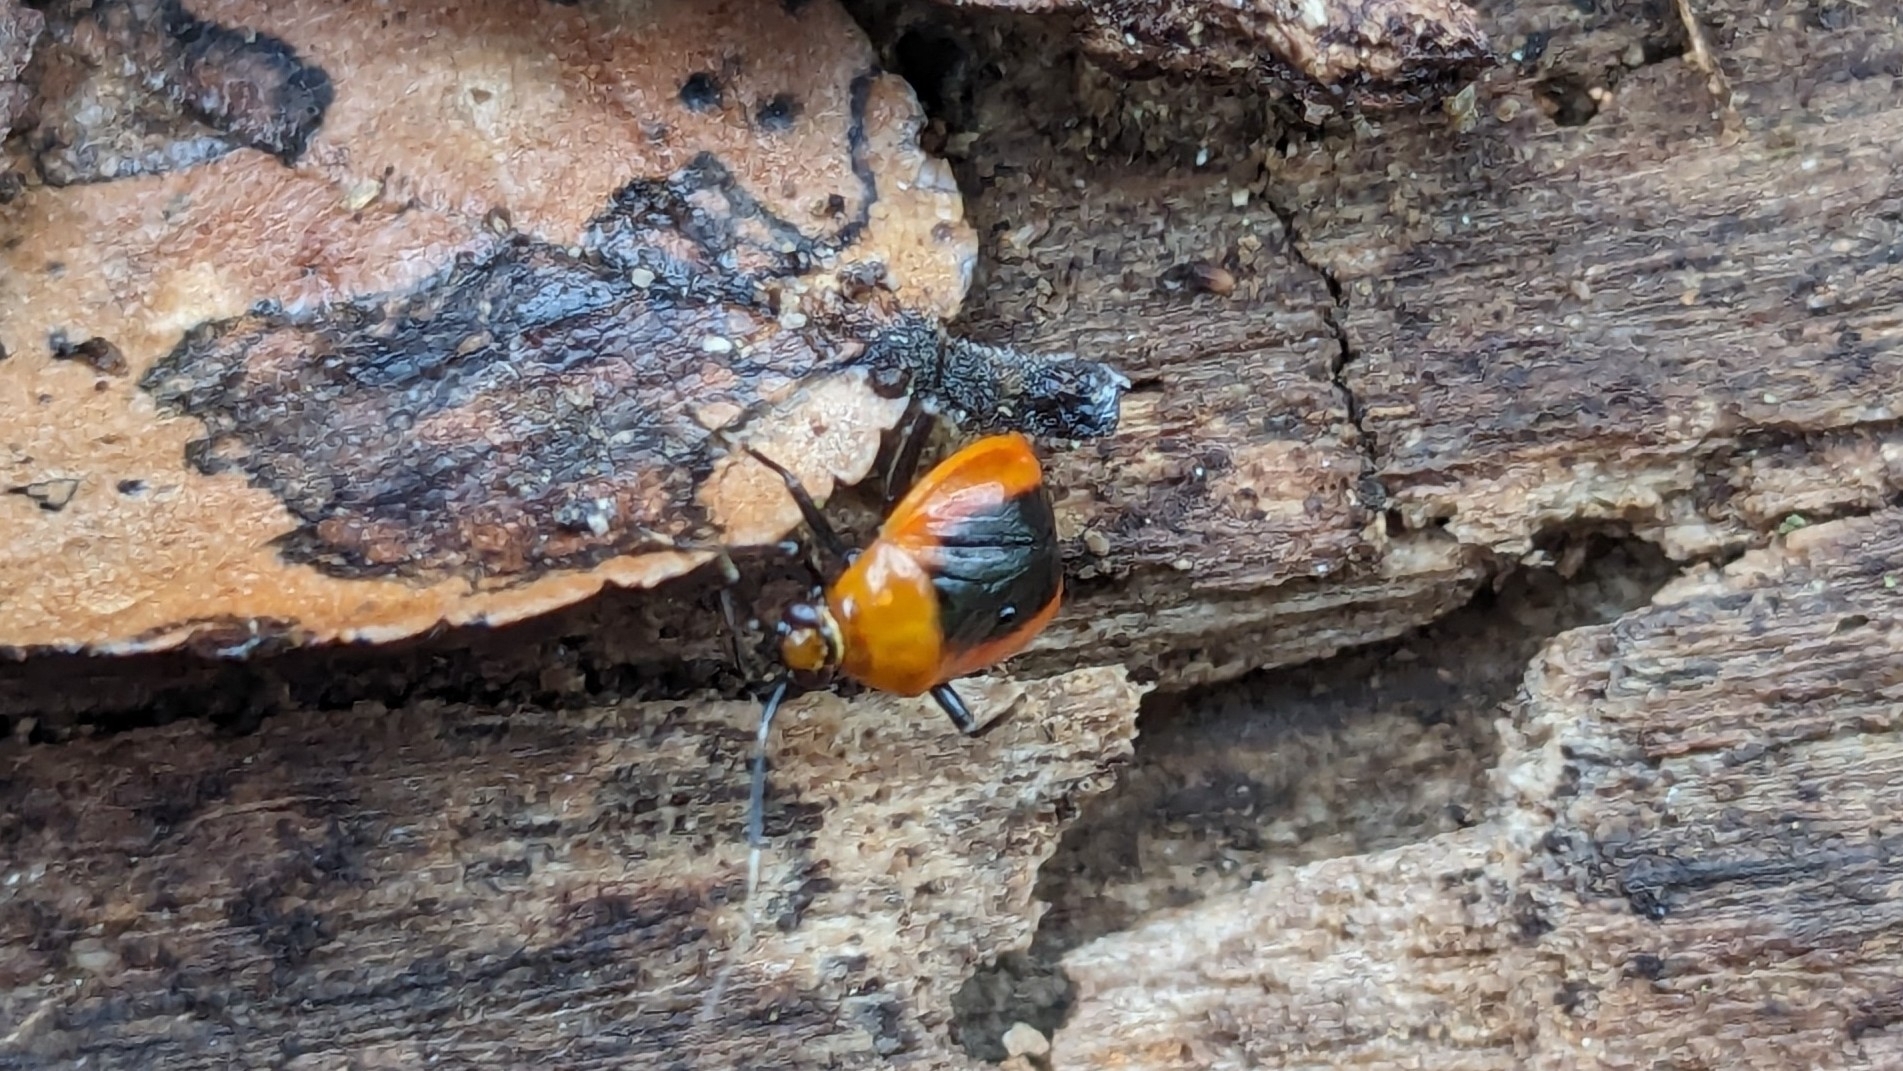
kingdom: Animalia
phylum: Arthropoda
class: Insecta
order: Hemiptera
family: Miridae
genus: Metriorrhynchomiris
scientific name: Metriorrhynchomiris dislocatus
